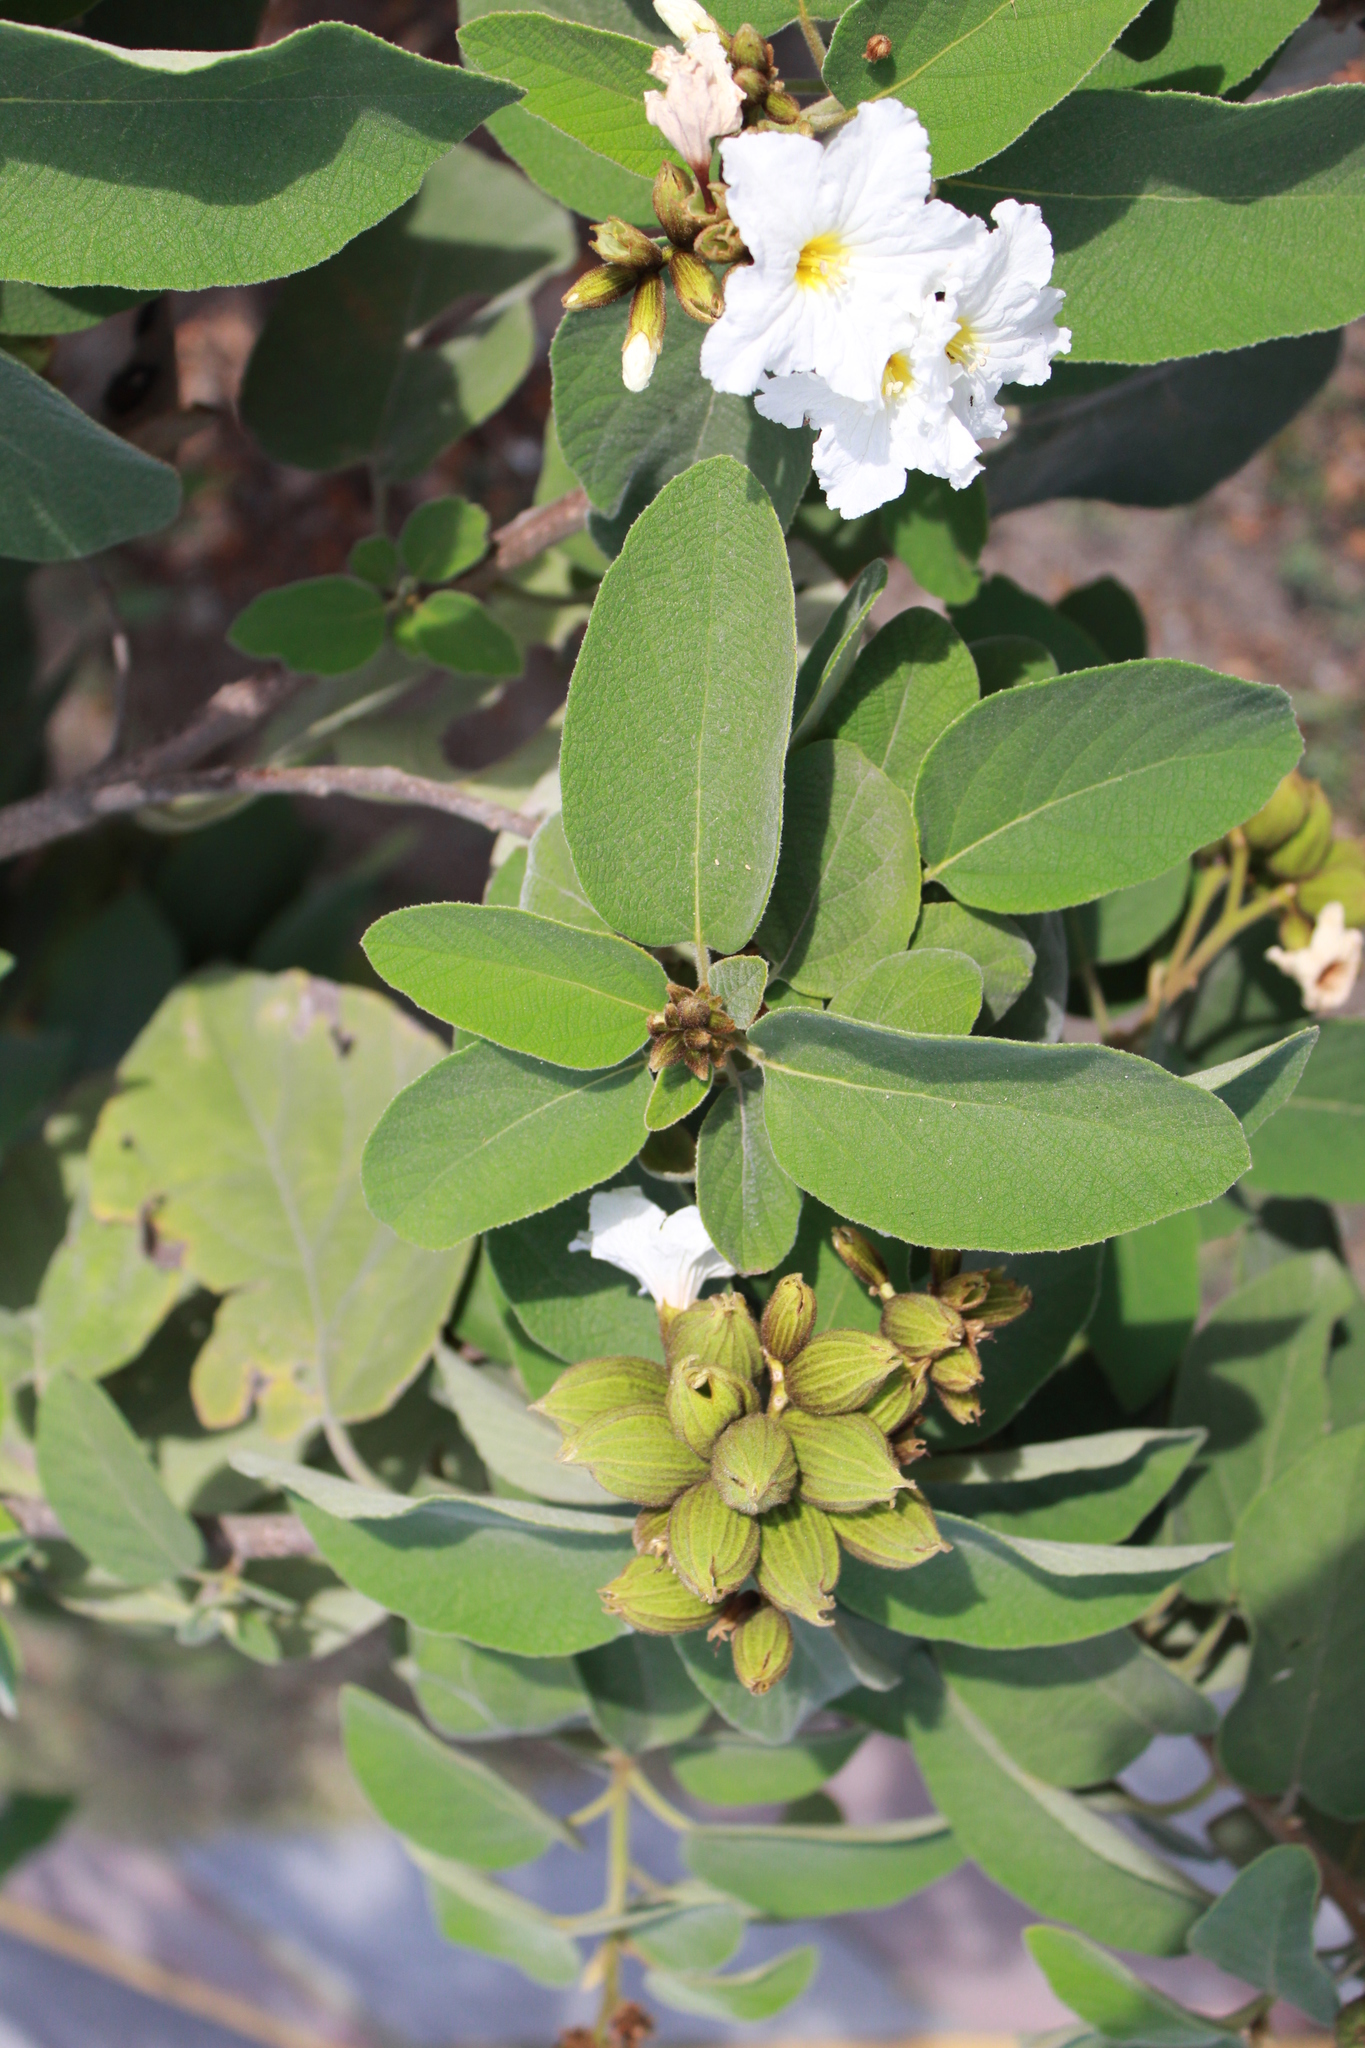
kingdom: Plantae
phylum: Tracheophyta
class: Magnoliopsida
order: Boraginales
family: Cordiaceae
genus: Cordia
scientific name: Cordia boissieri
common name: Mexican-olive
